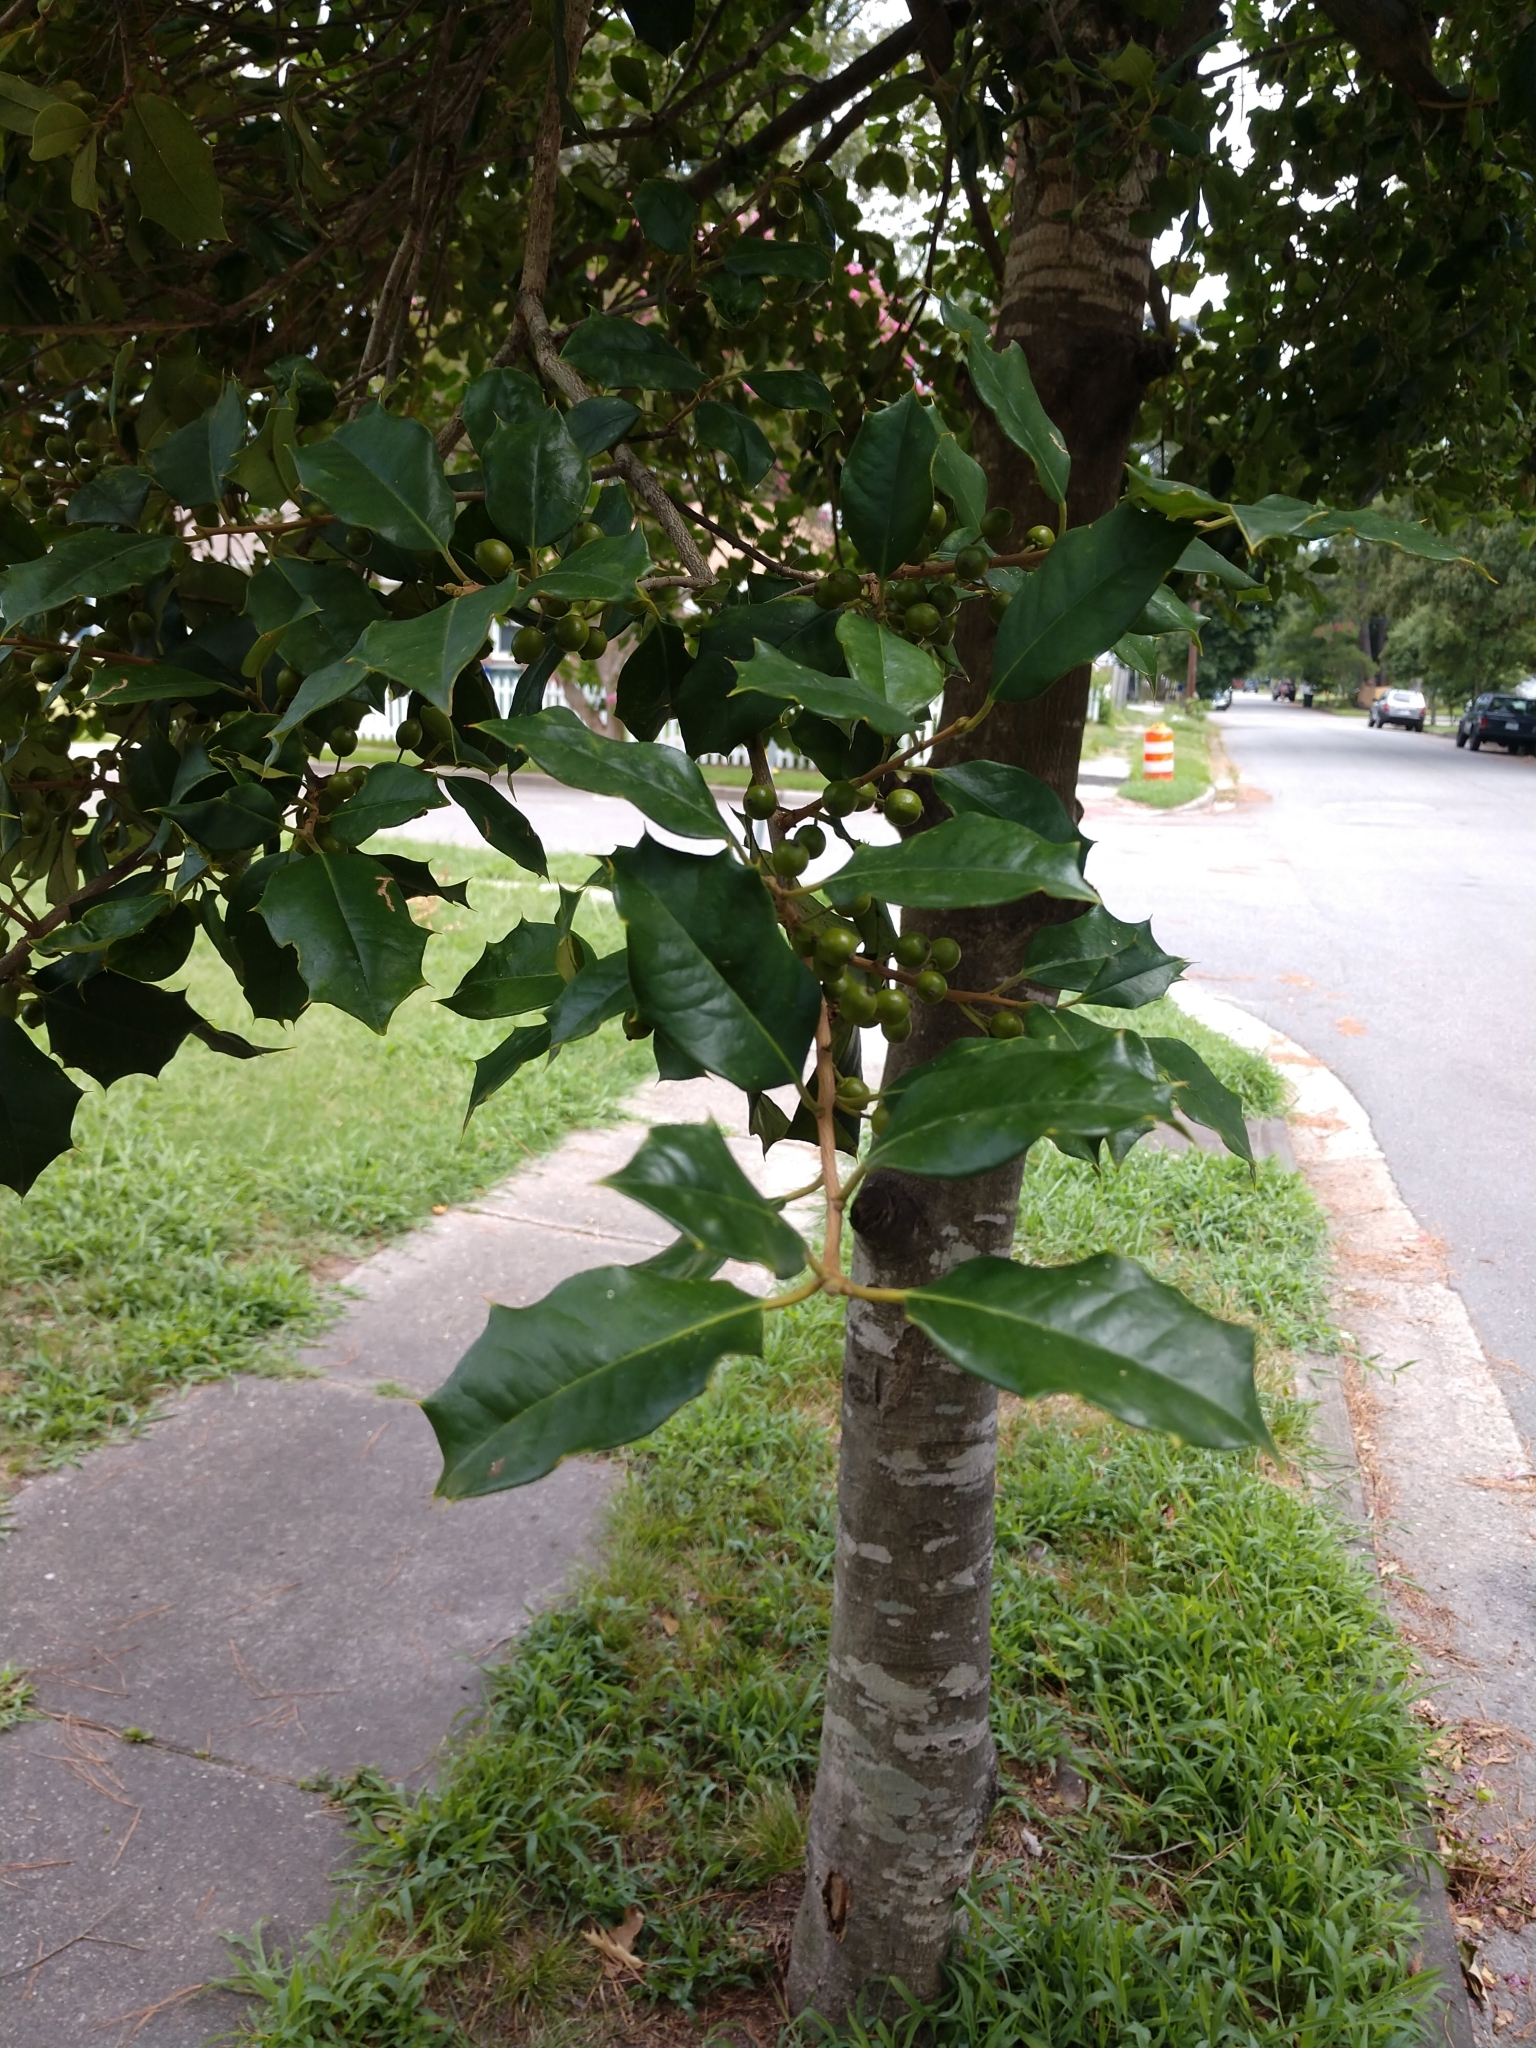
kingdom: Plantae
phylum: Tracheophyta
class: Magnoliopsida
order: Aquifoliales
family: Aquifoliaceae
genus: Ilex
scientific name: Ilex opaca
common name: American holly
